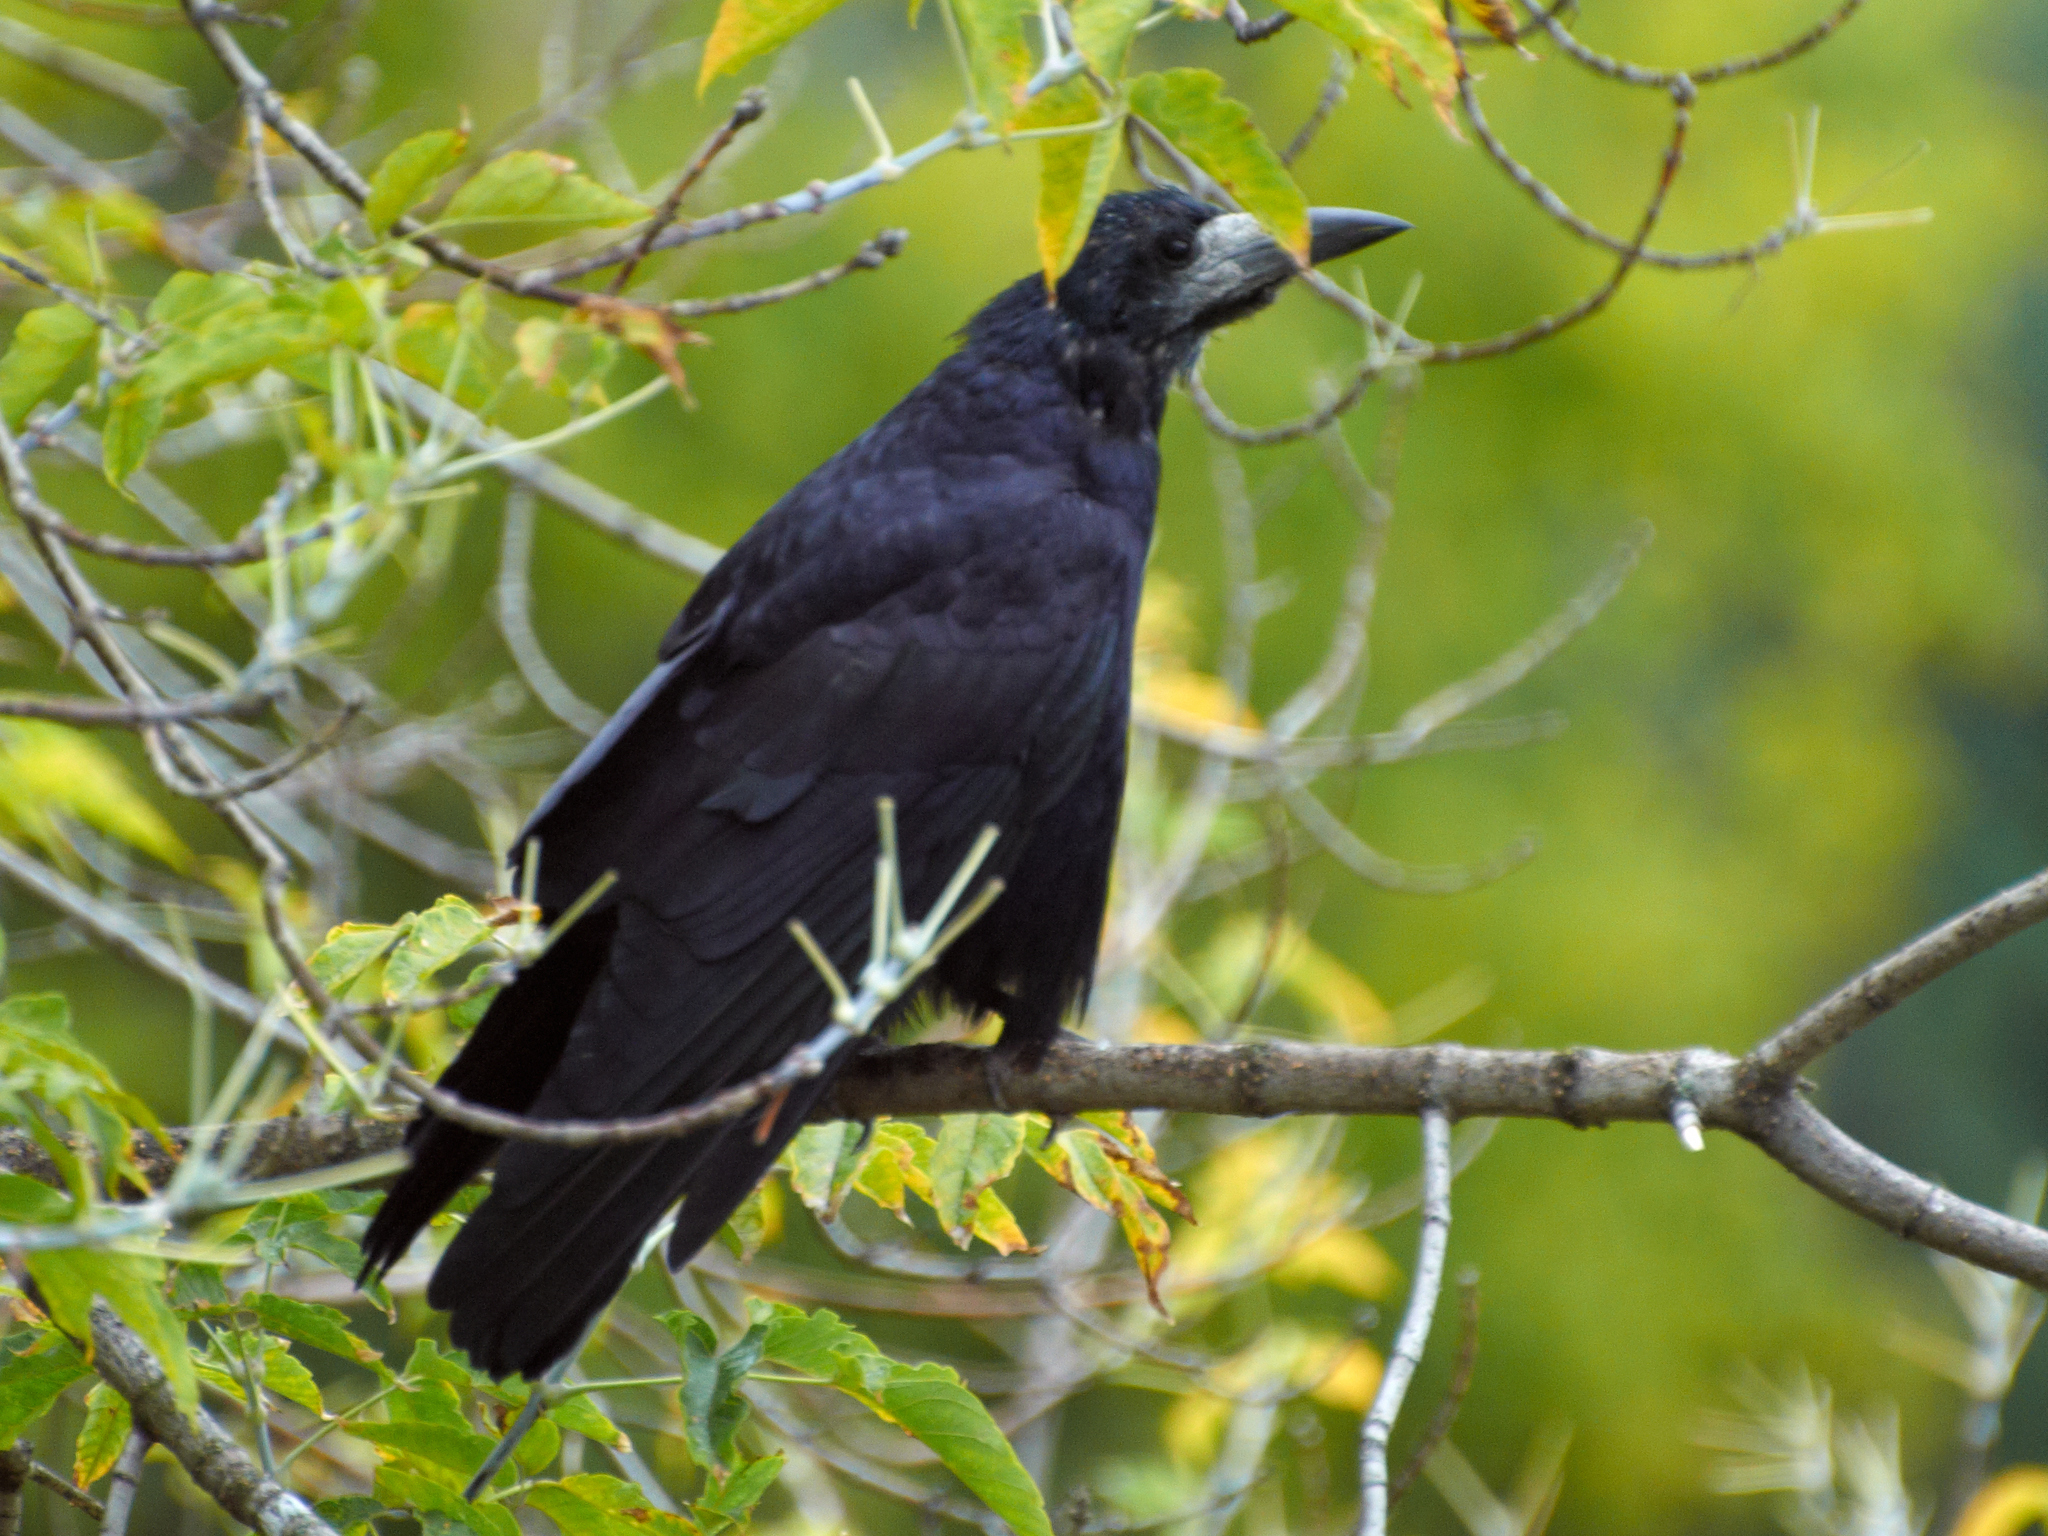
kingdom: Animalia
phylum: Chordata
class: Aves
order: Passeriformes
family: Corvidae
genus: Corvus
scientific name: Corvus frugilegus
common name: Rook
